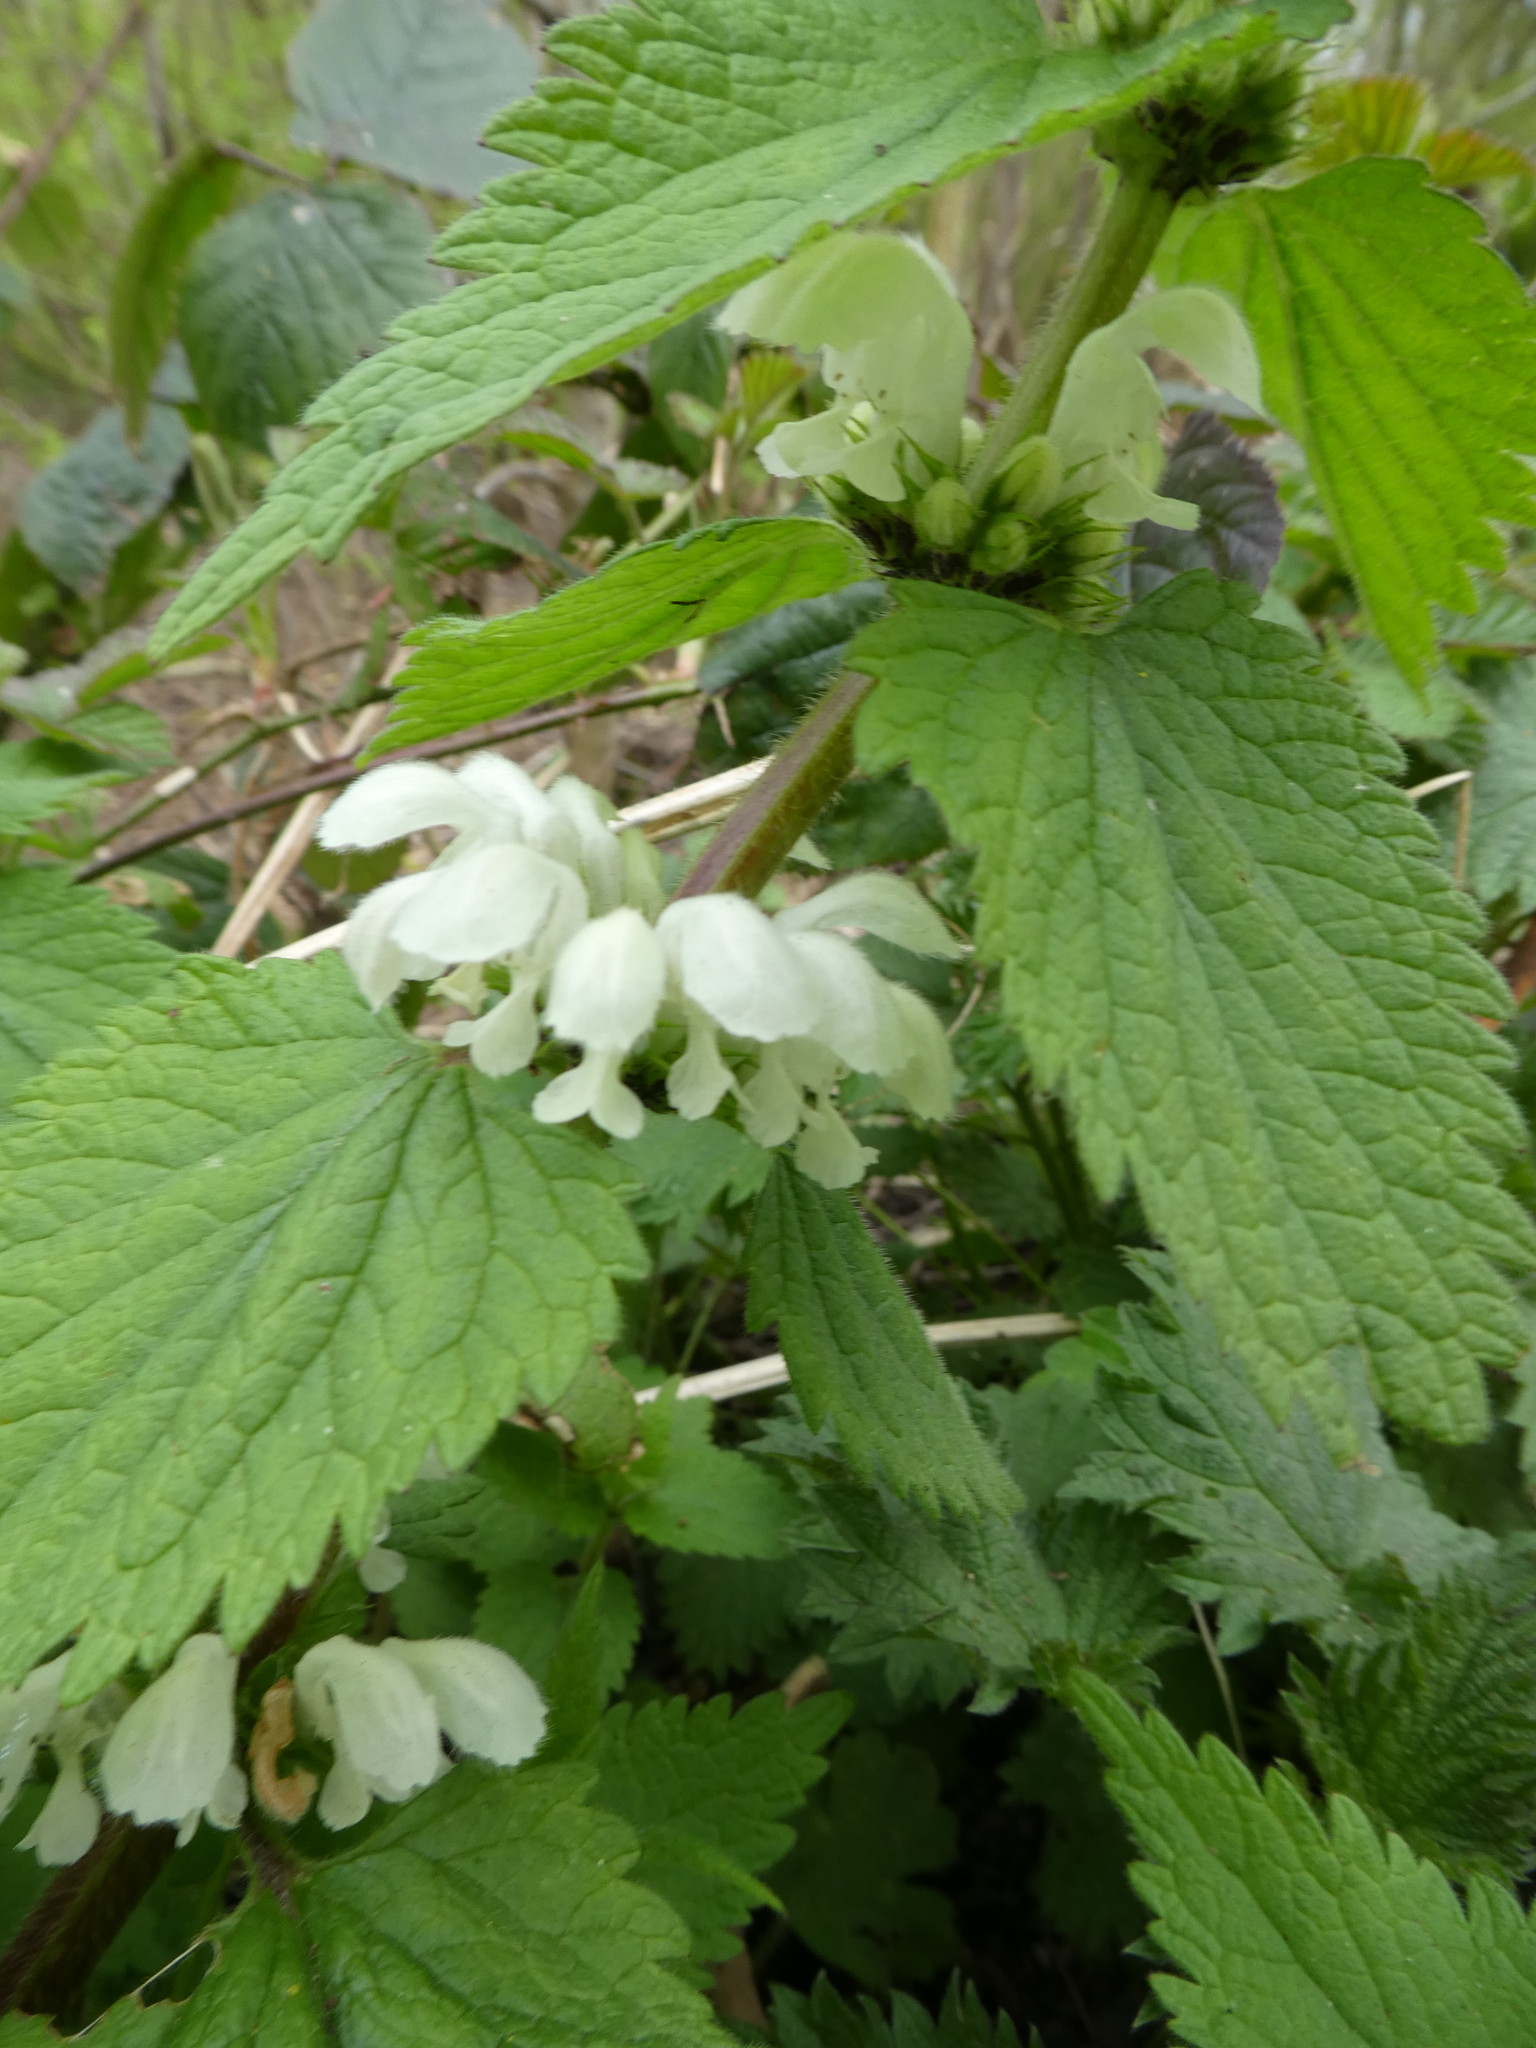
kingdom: Plantae
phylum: Tracheophyta
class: Magnoliopsida
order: Lamiales
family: Lamiaceae
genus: Lamium
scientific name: Lamium album
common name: White dead-nettle
